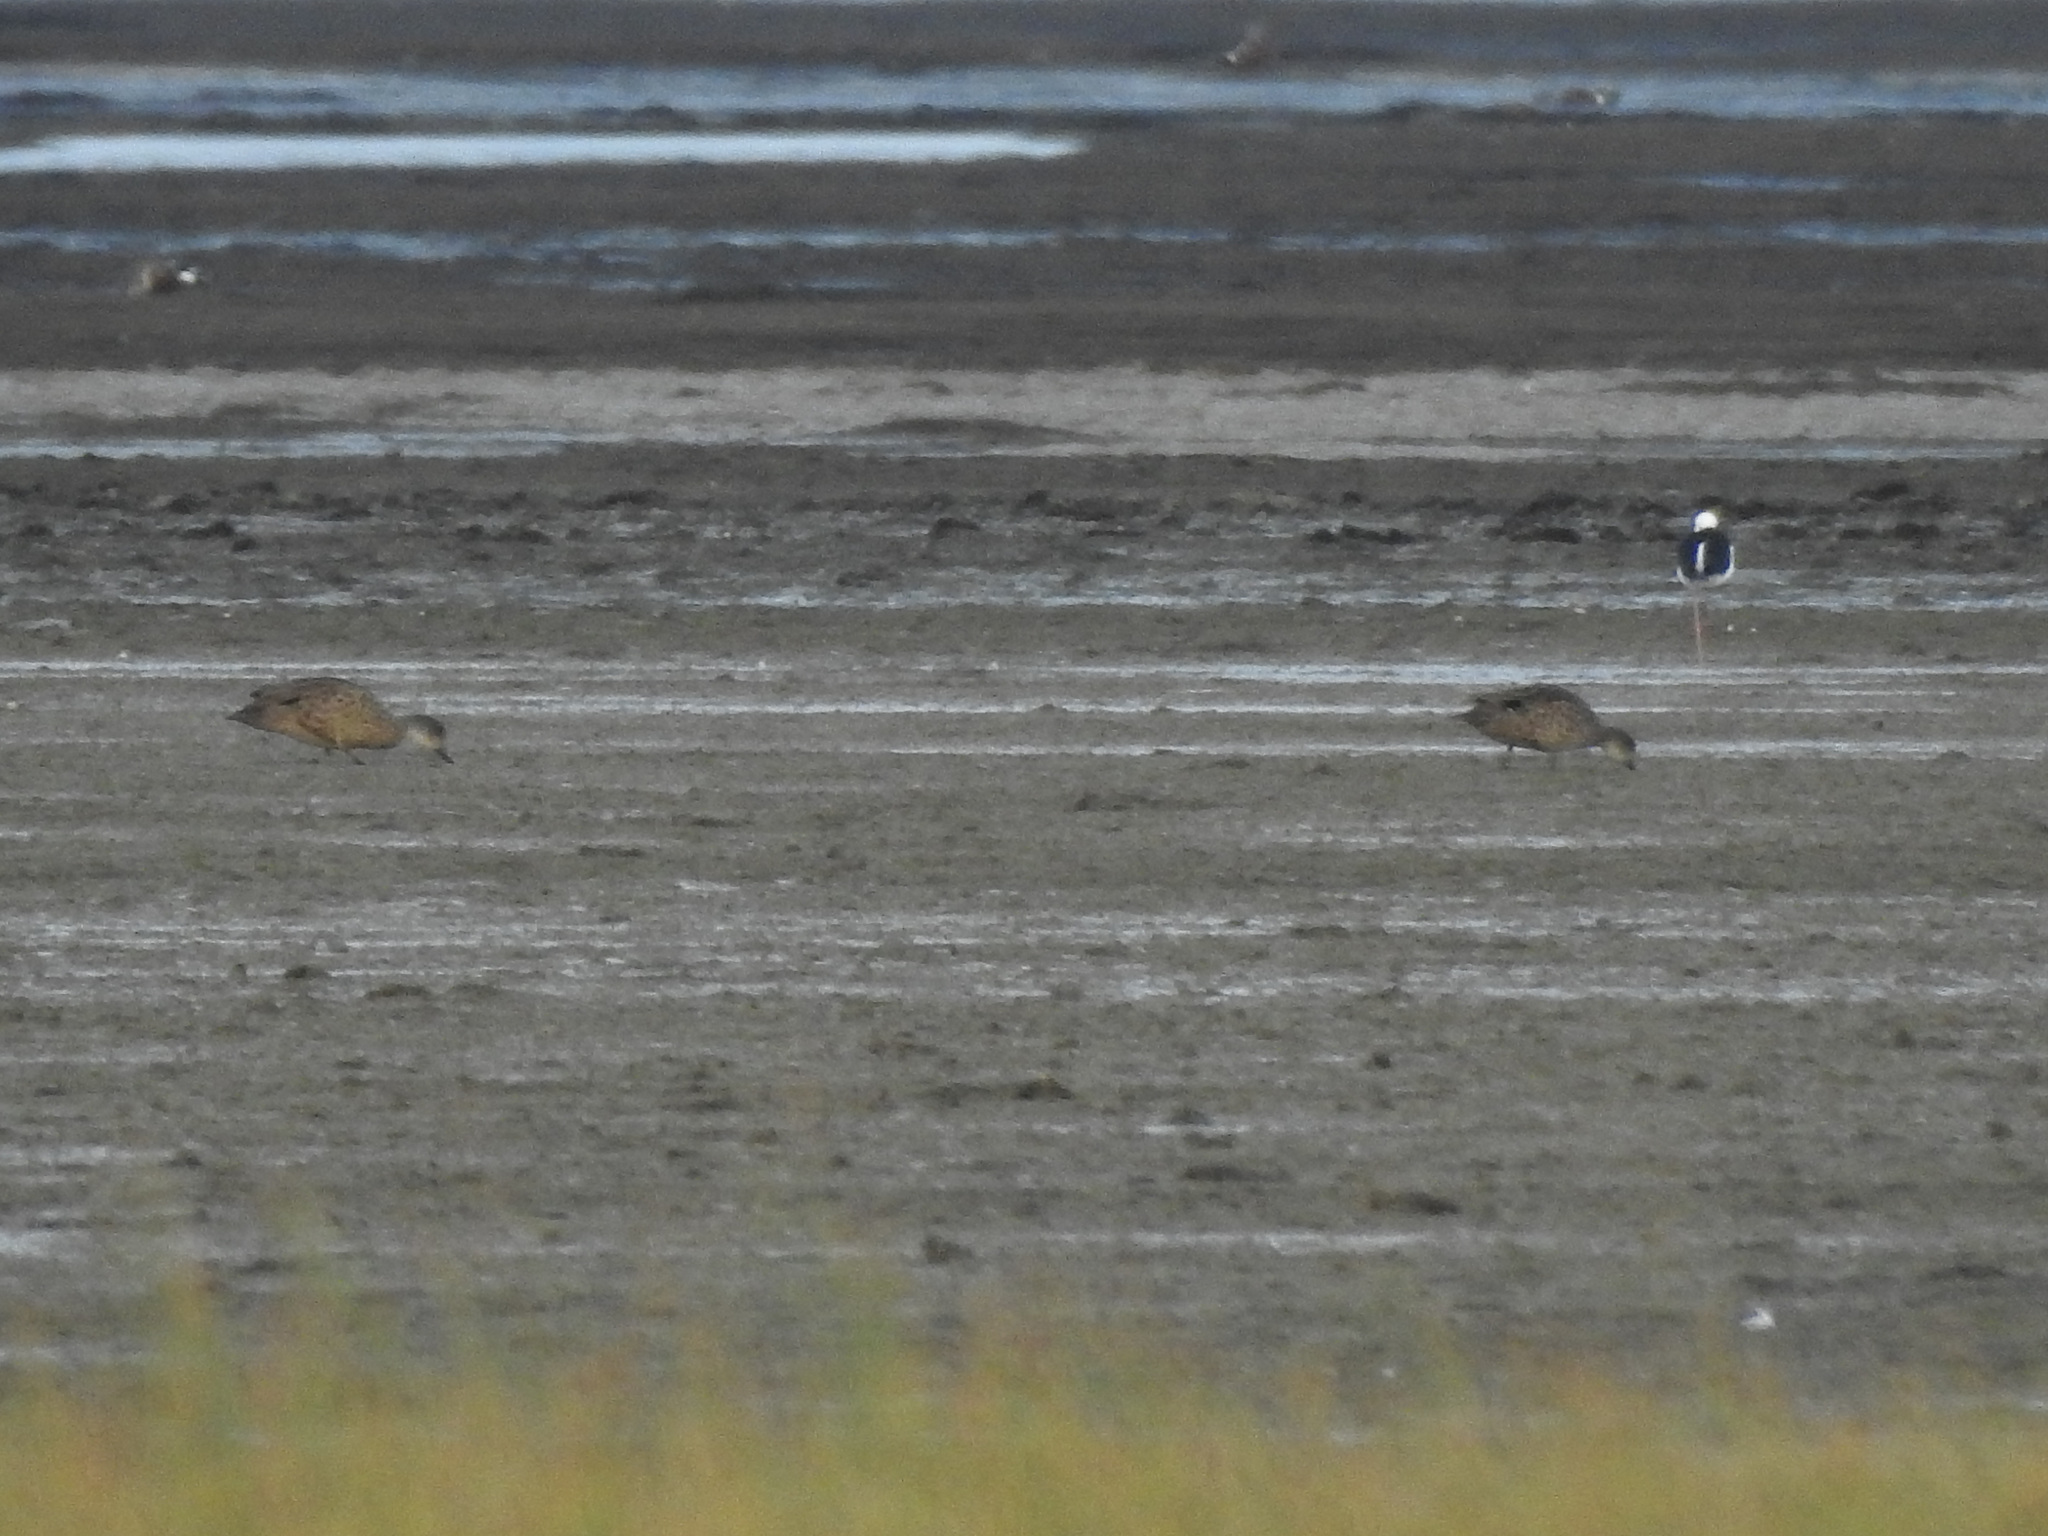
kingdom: Animalia
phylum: Chordata
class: Aves
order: Anseriformes
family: Anatidae
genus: Anas
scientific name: Anas gracilis
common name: Grey teal
